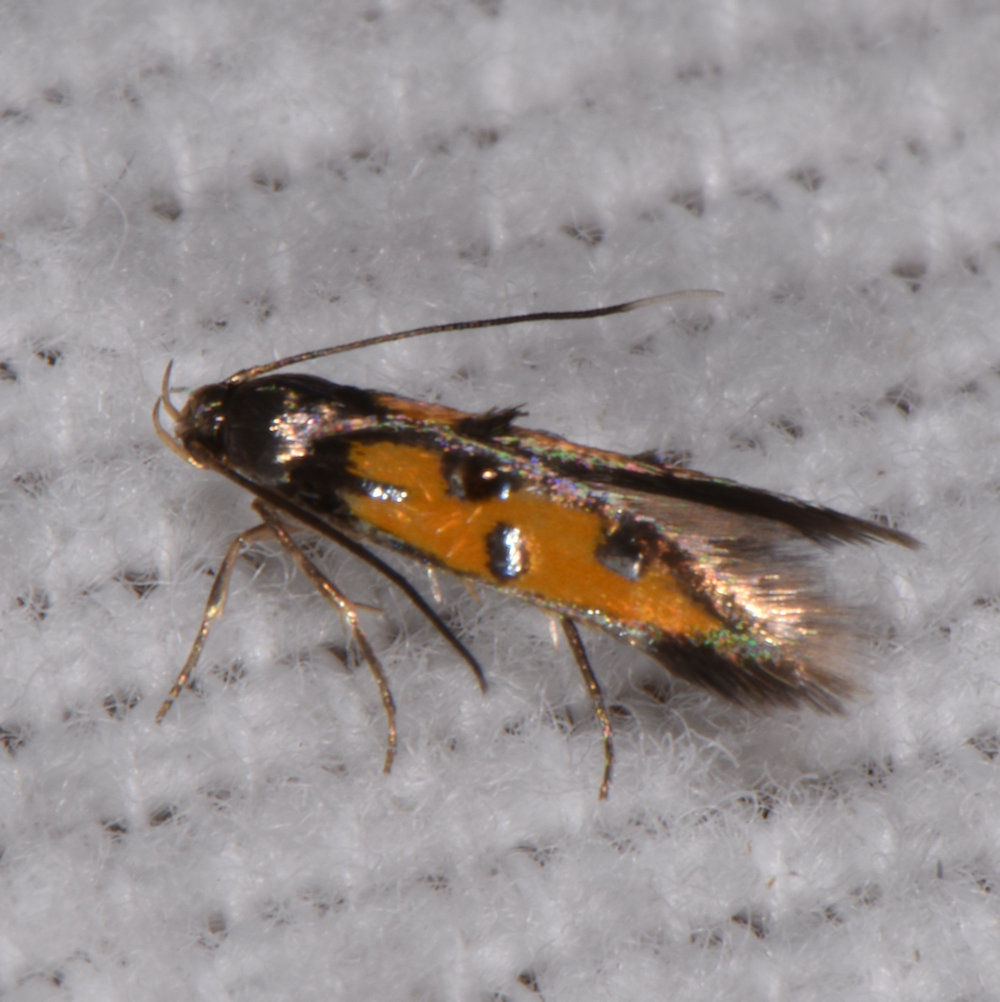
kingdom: Animalia
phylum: Arthropoda
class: Insecta
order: Lepidoptera
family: Elachistidae
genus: Chrysoclista
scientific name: Chrysoclista linneela
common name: Lime cosmet
